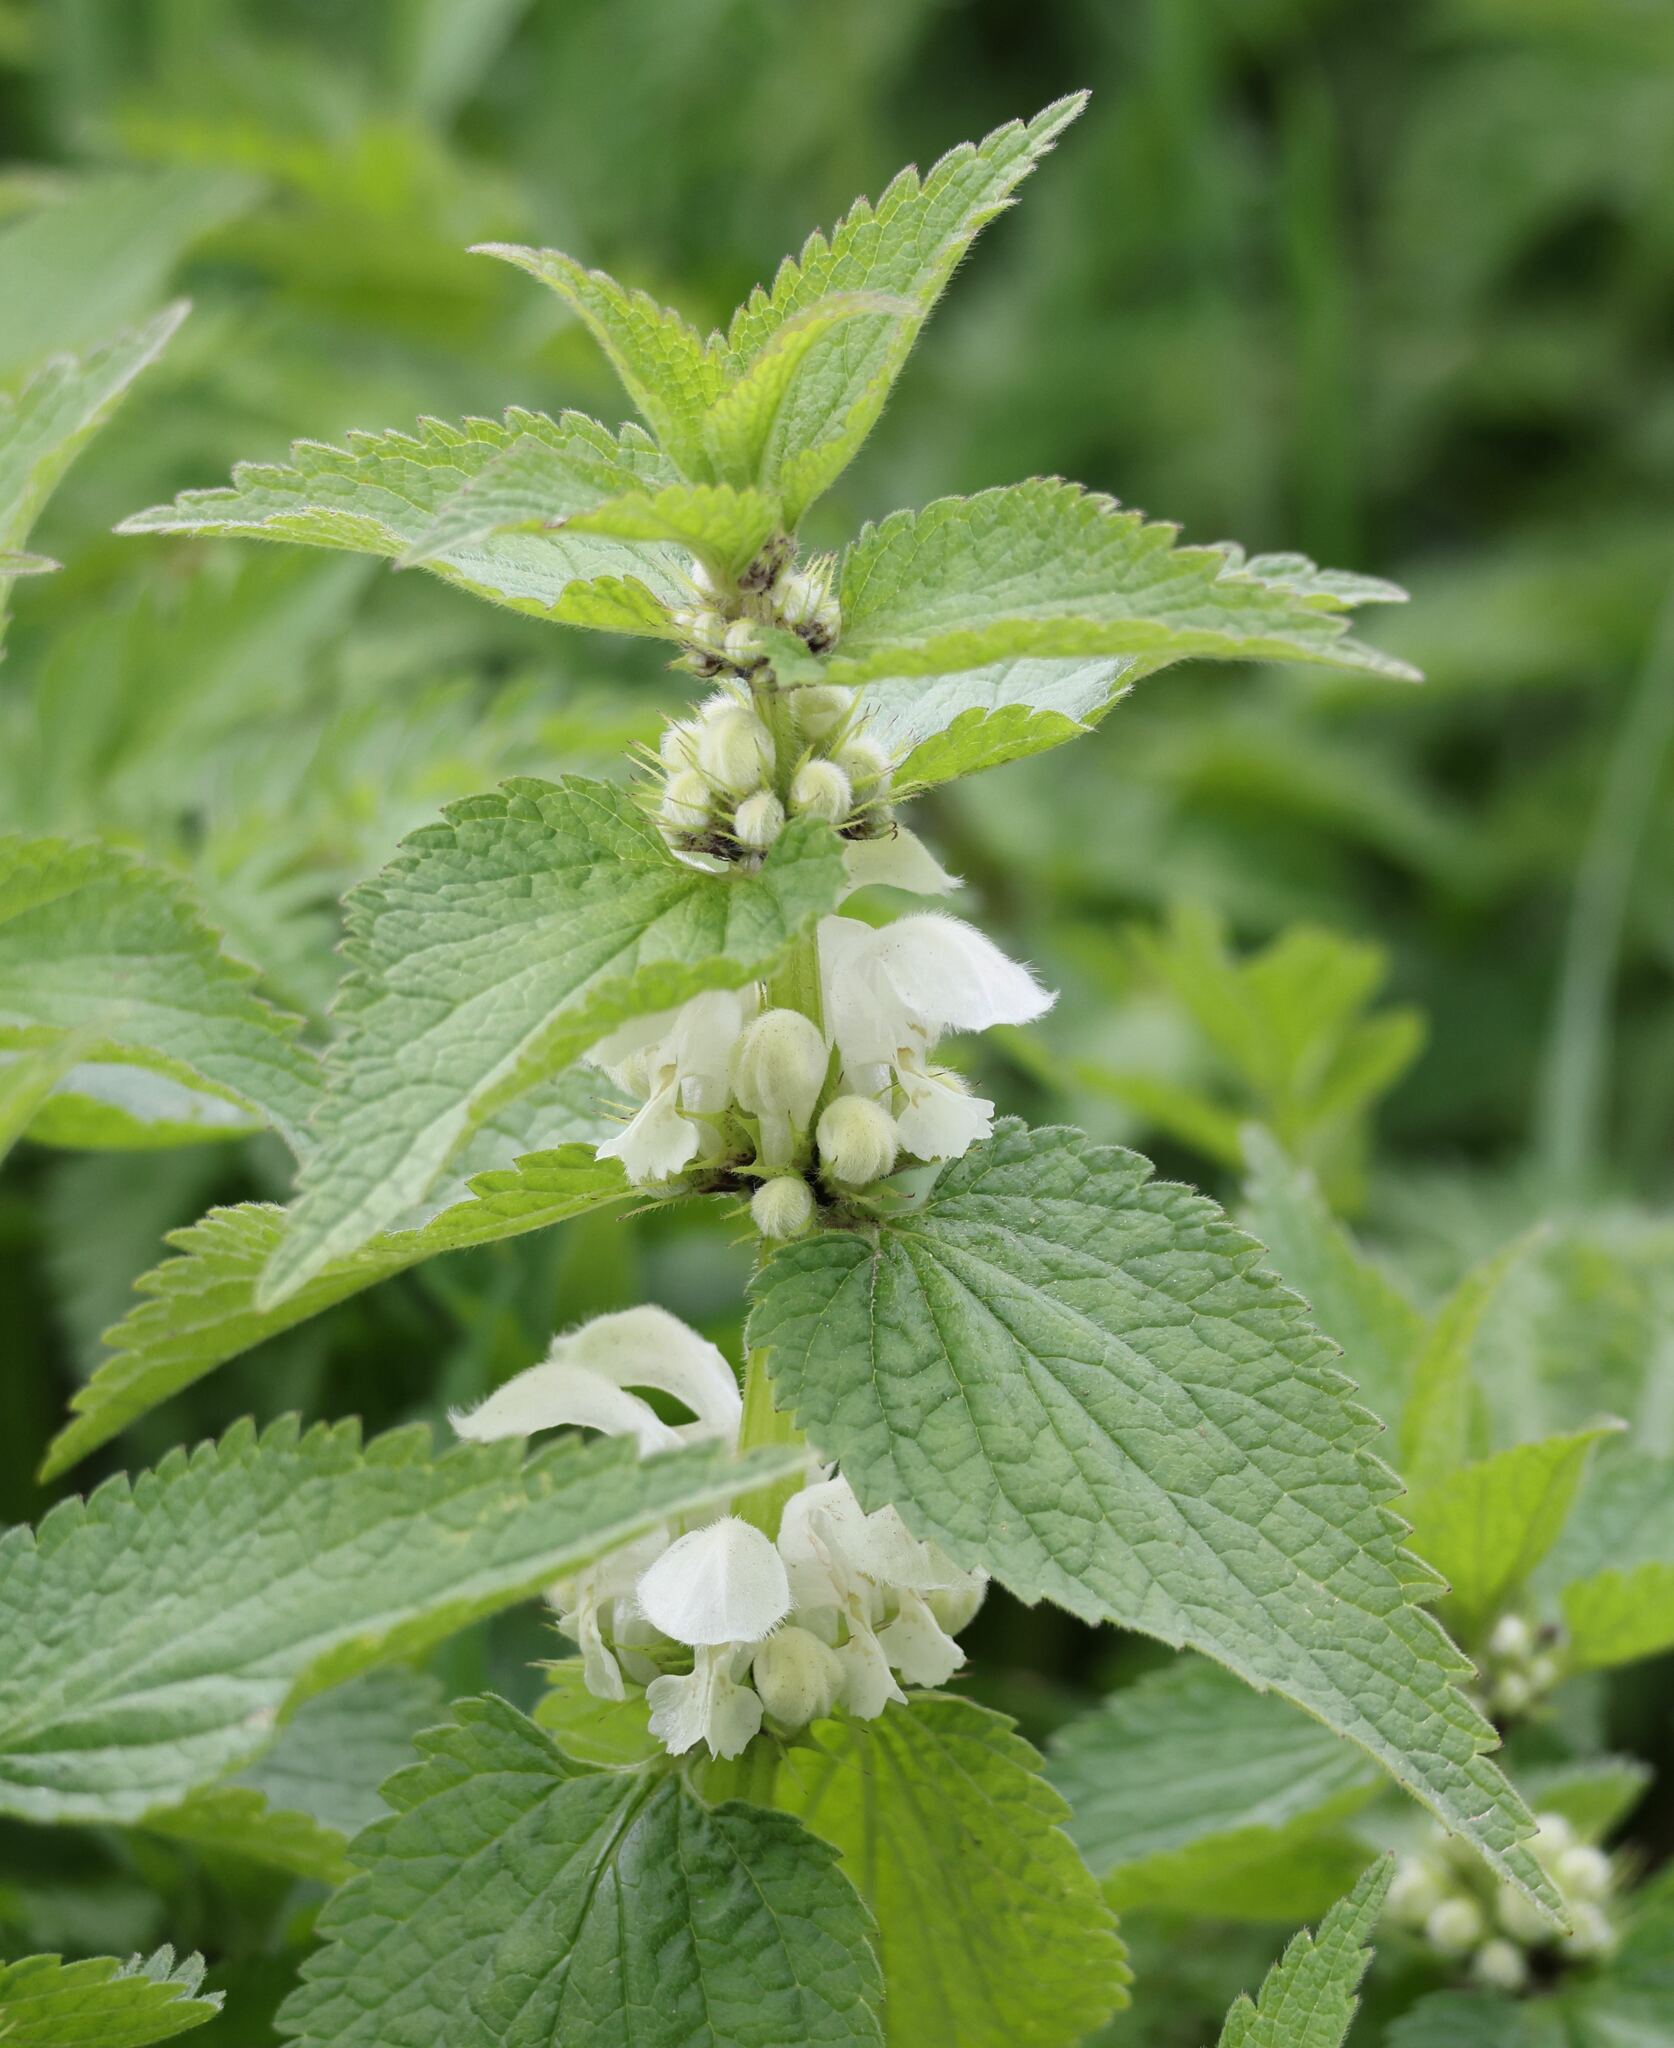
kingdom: Plantae
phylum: Tracheophyta
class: Magnoliopsida
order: Lamiales
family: Lamiaceae
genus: Lamium
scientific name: Lamium album
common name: White dead-nettle
